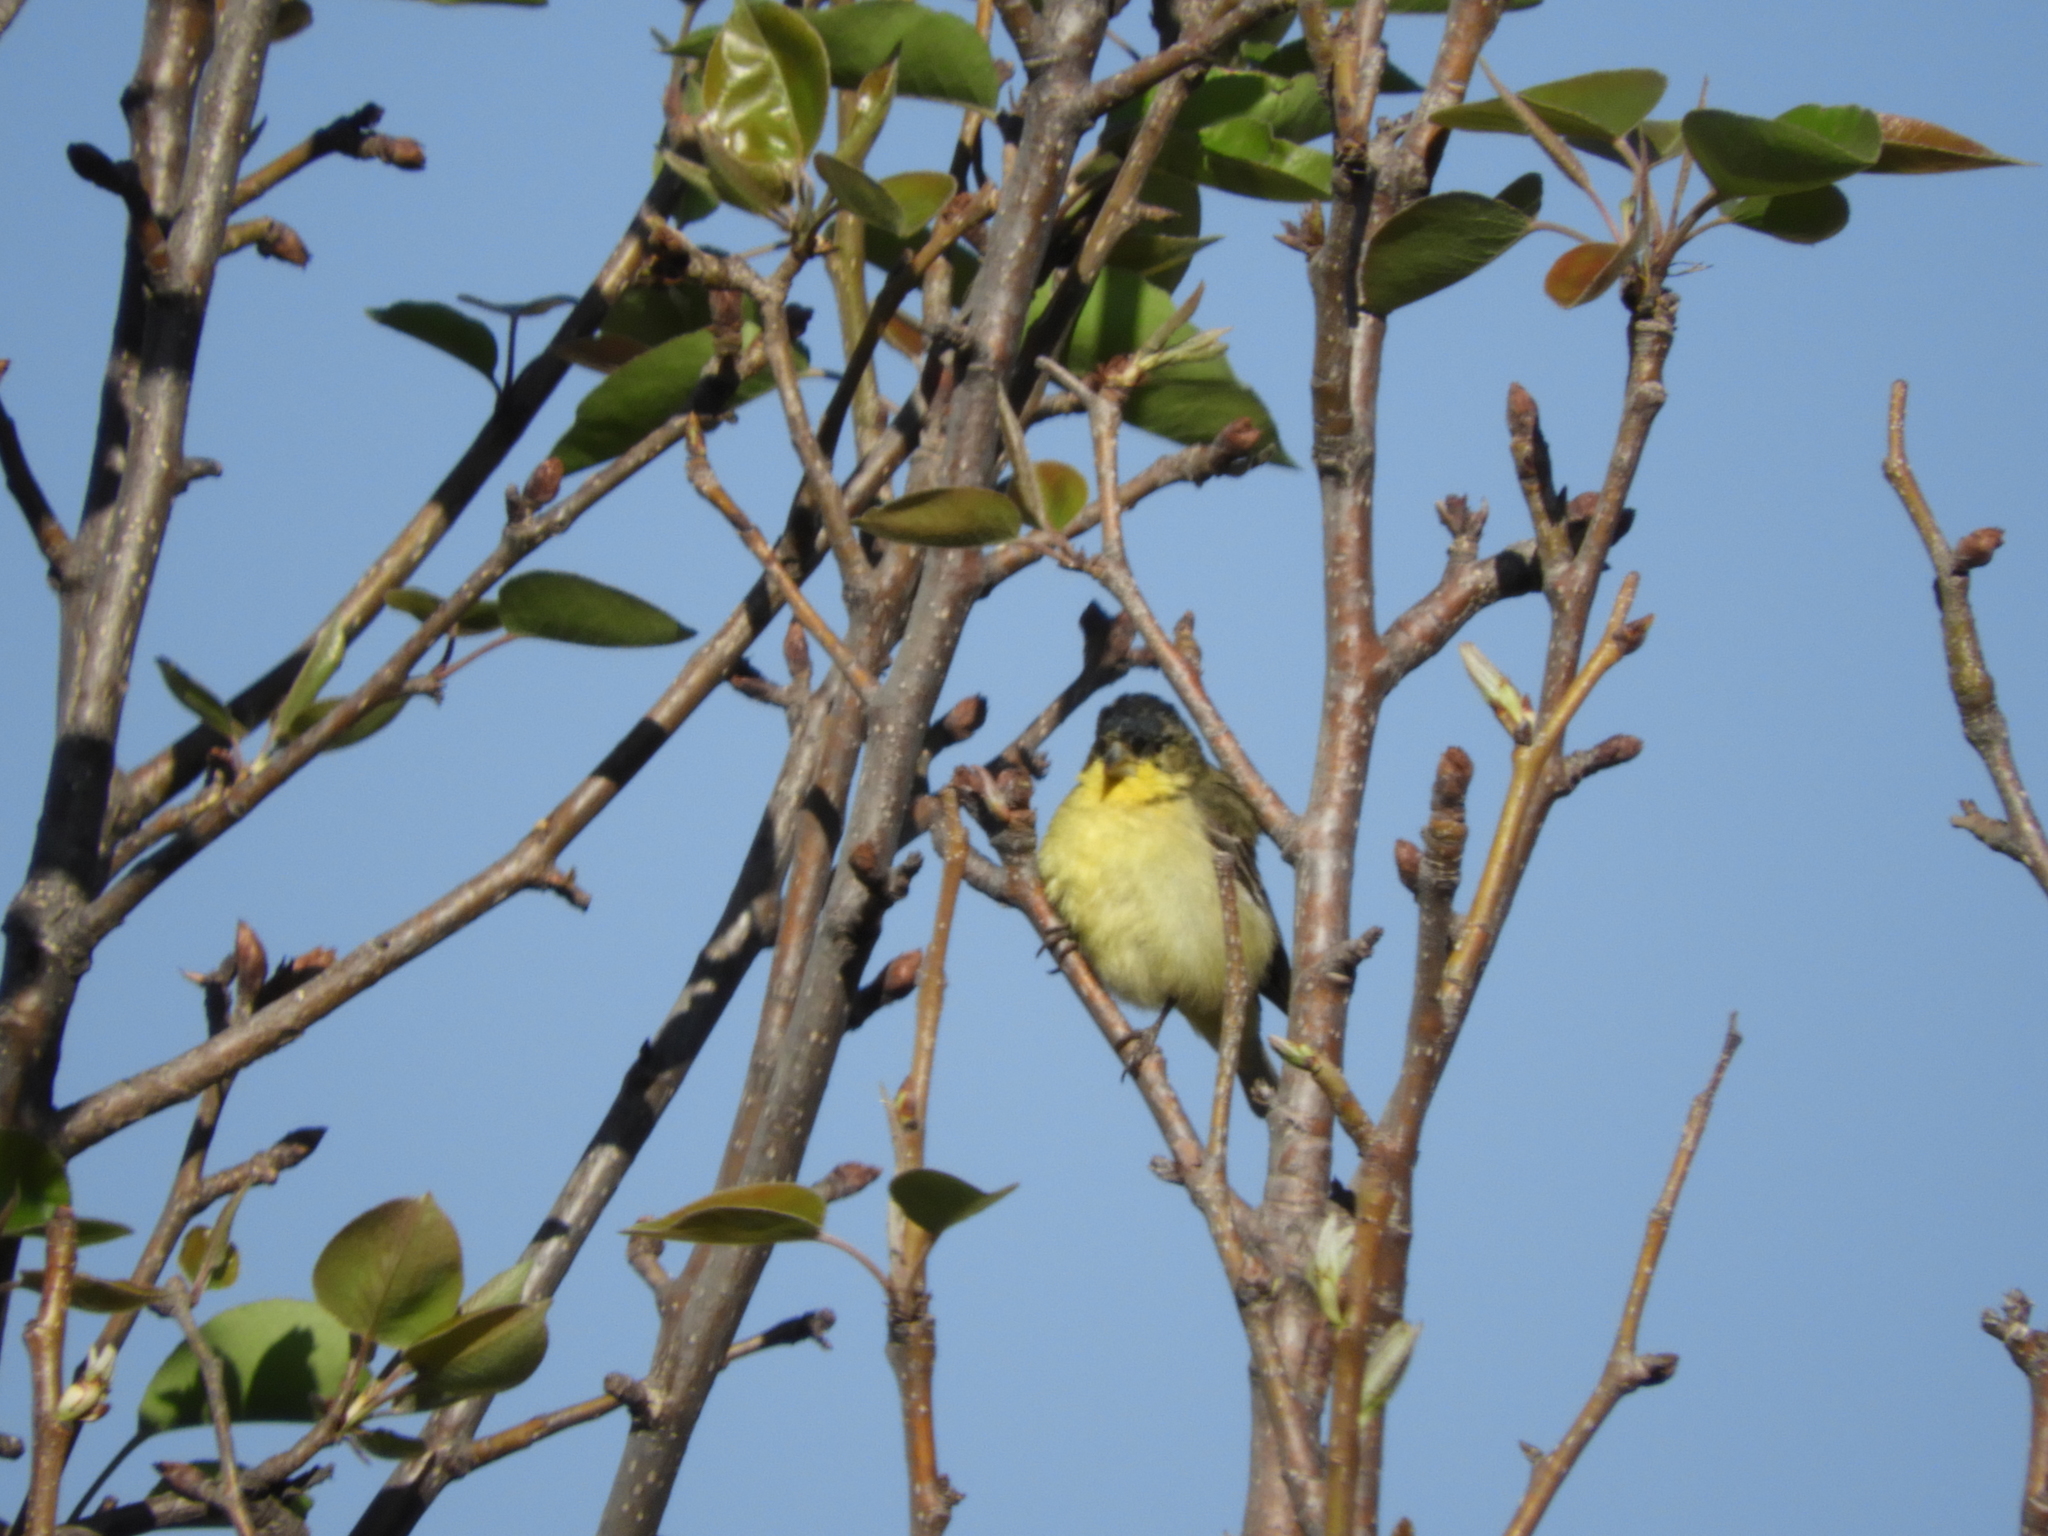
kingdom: Animalia
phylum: Chordata
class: Aves
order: Passeriformes
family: Fringillidae
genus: Spinus
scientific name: Spinus psaltria
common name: Lesser goldfinch
